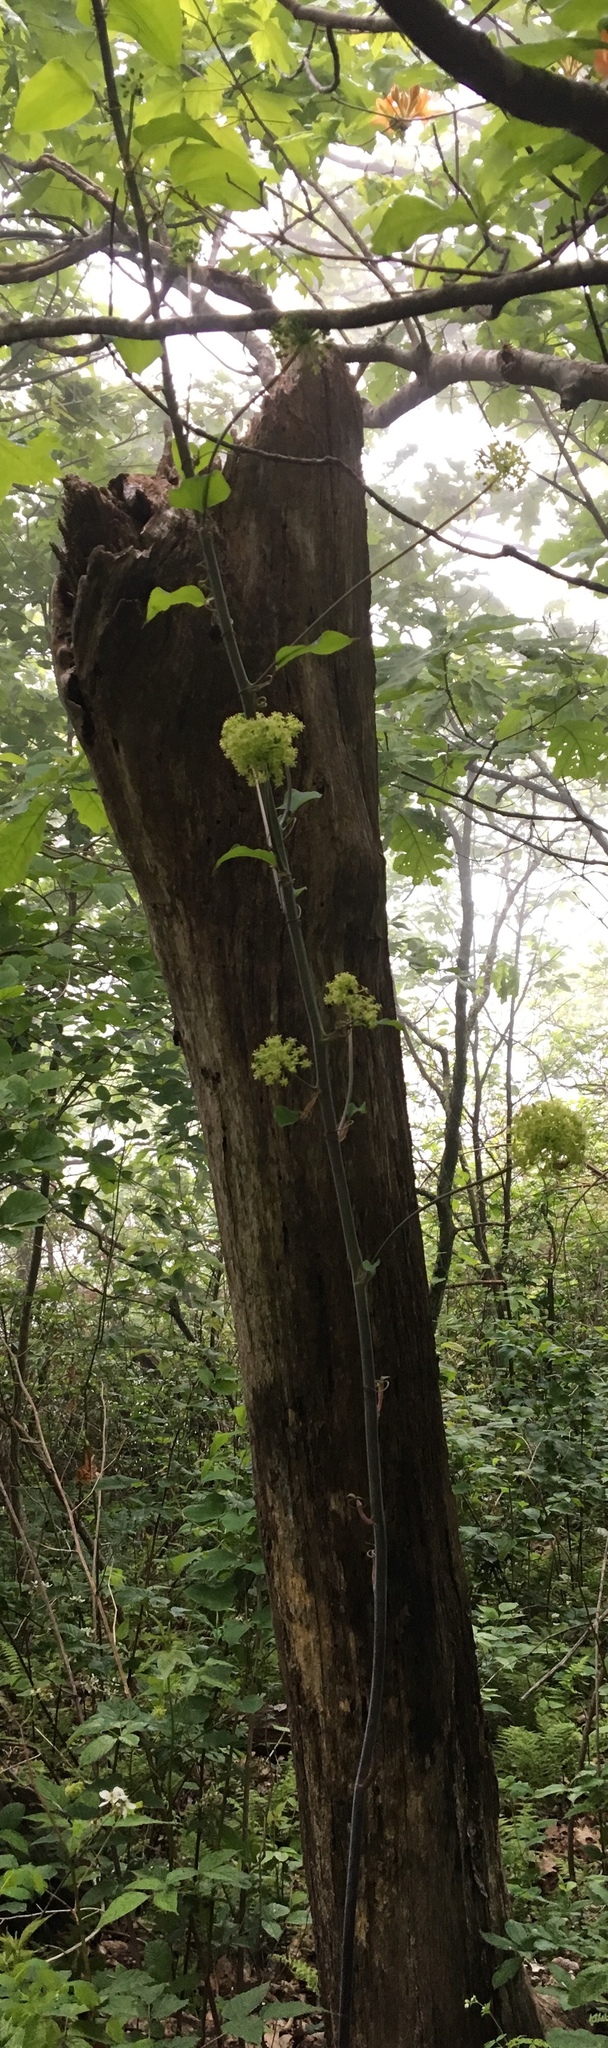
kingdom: Plantae
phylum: Tracheophyta
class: Liliopsida
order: Liliales
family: Smilacaceae
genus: Smilax
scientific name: Smilax herbacea
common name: Jacob's-ladder
